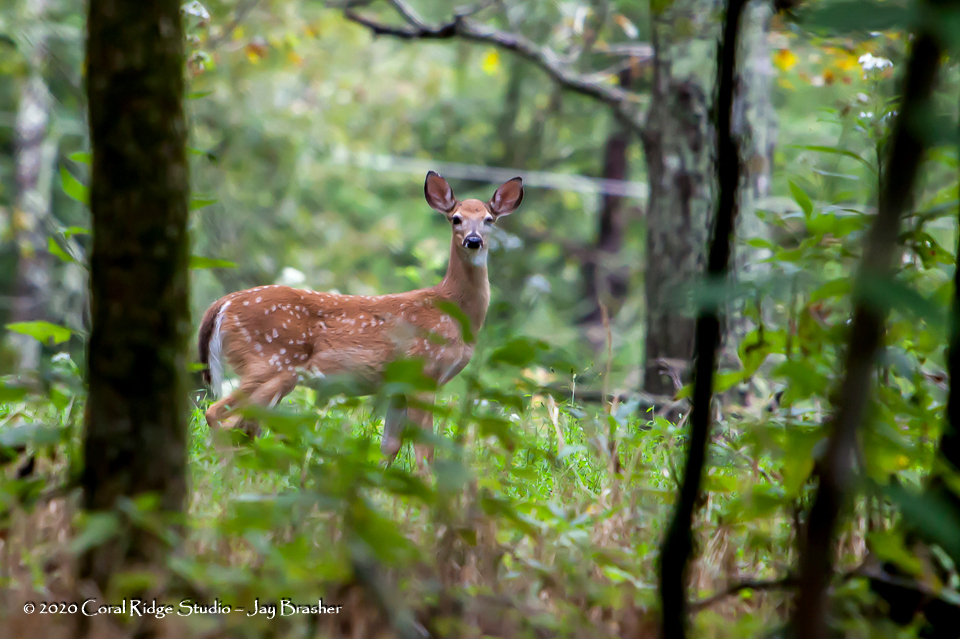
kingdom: Animalia
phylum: Chordata
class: Mammalia
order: Artiodactyla
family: Cervidae
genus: Odocoileus
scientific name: Odocoileus virginianus
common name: White-tailed deer
